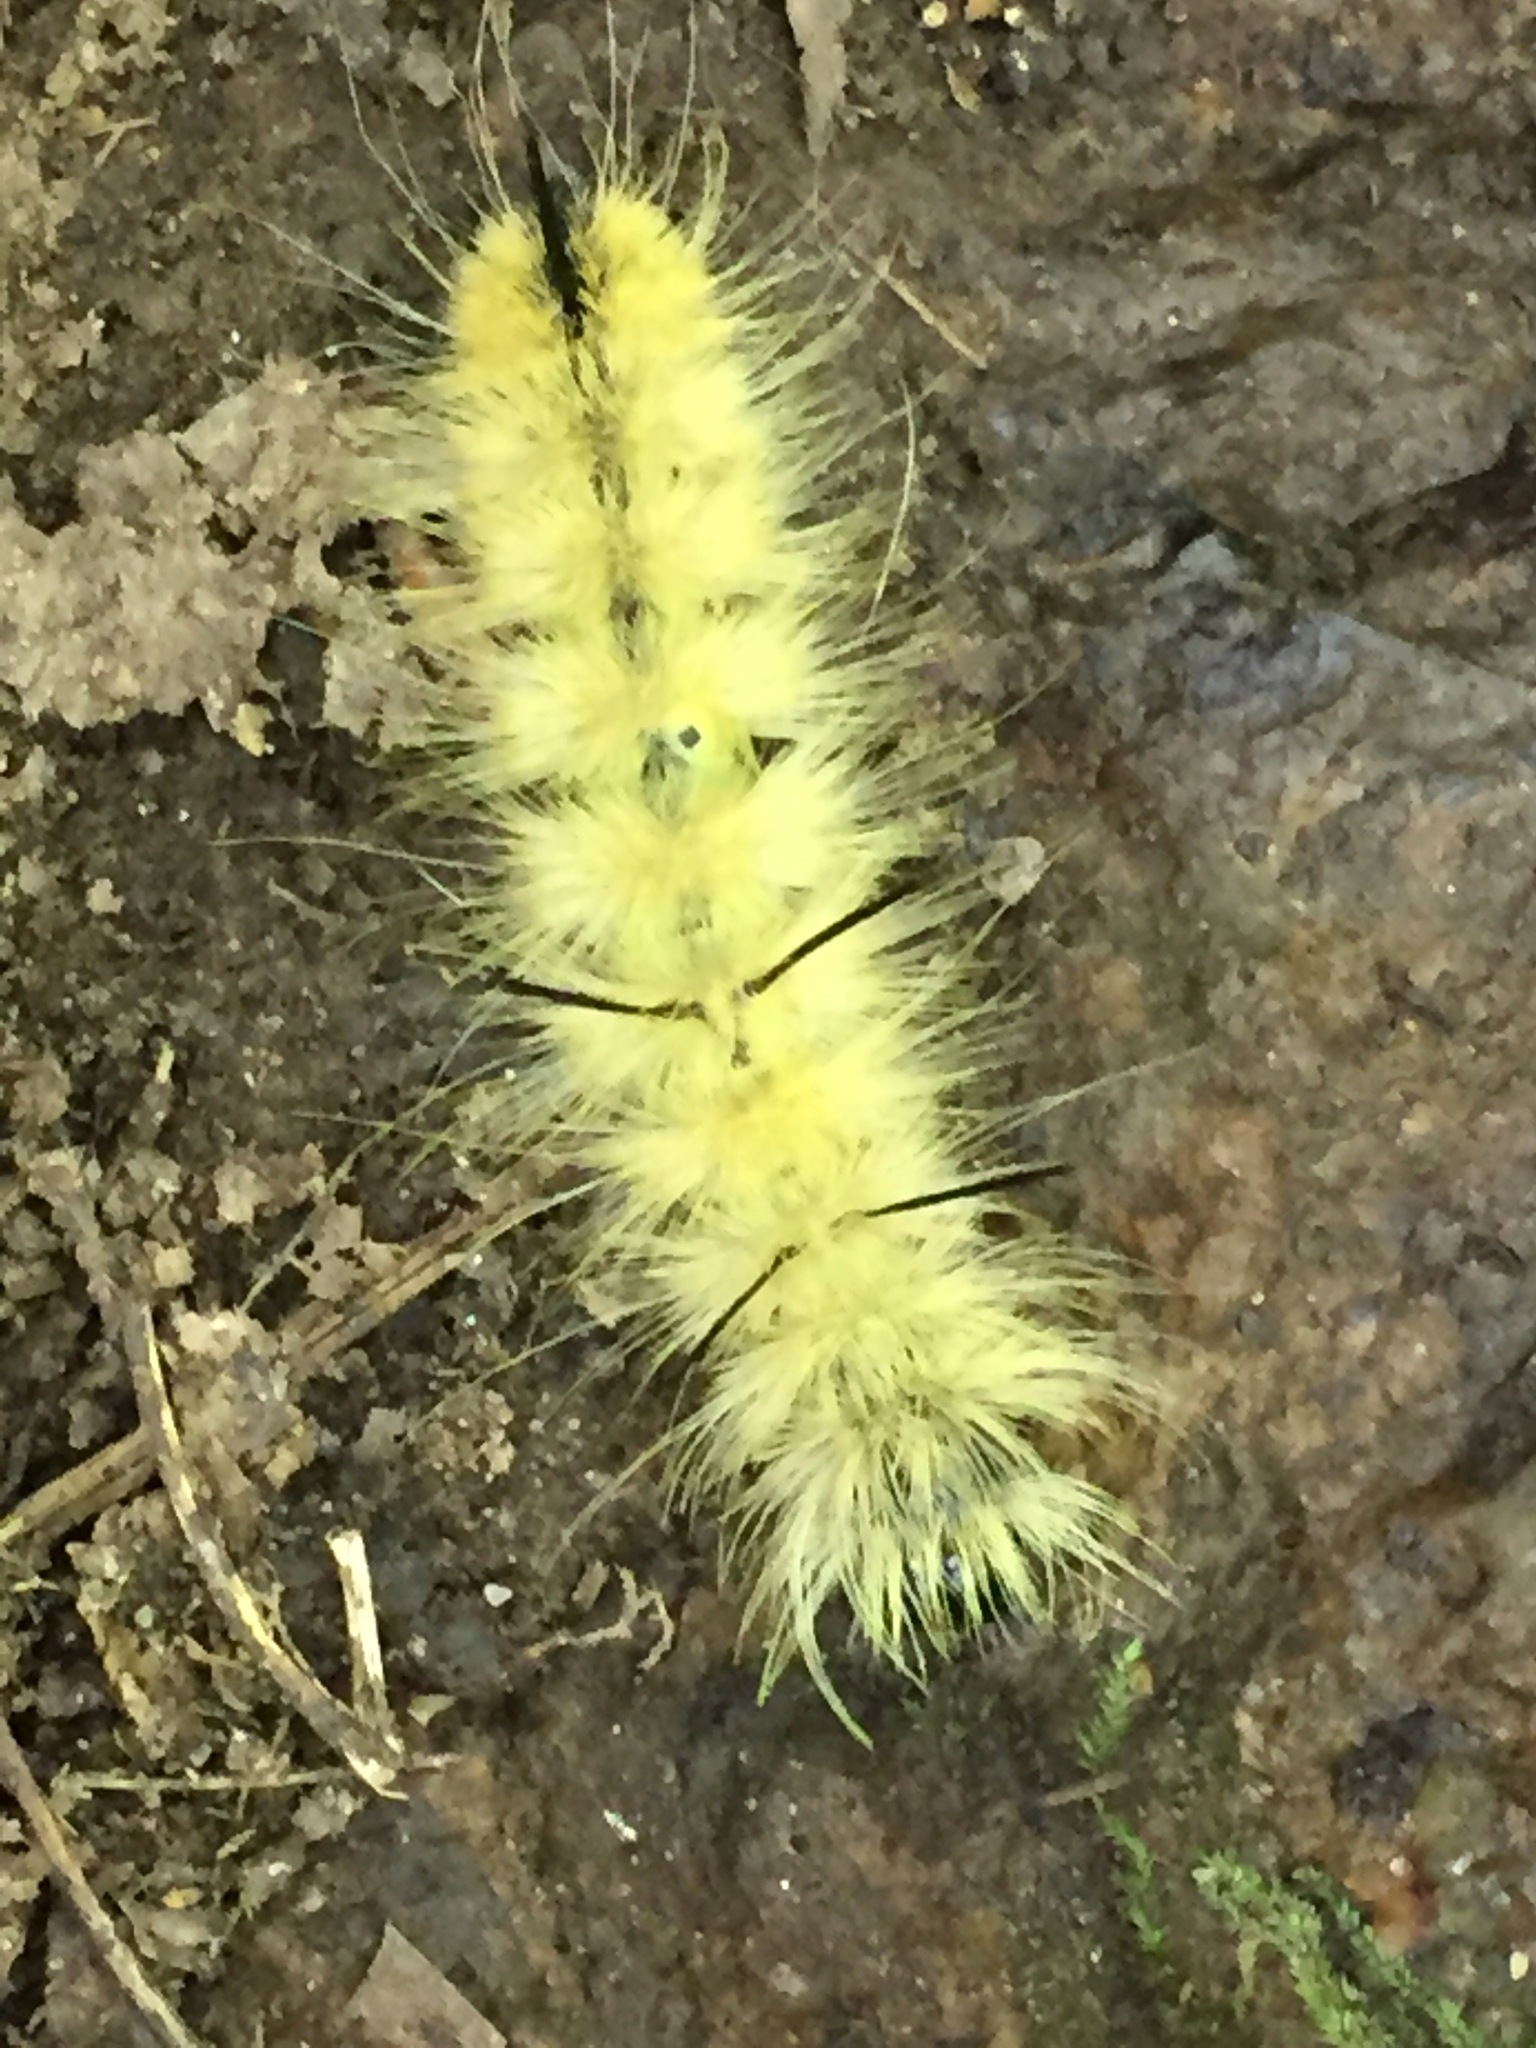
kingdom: Animalia
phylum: Arthropoda
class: Insecta
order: Lepidoptera
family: Noctuidae
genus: Acronicta
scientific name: Acronicta americana
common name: American dagger
